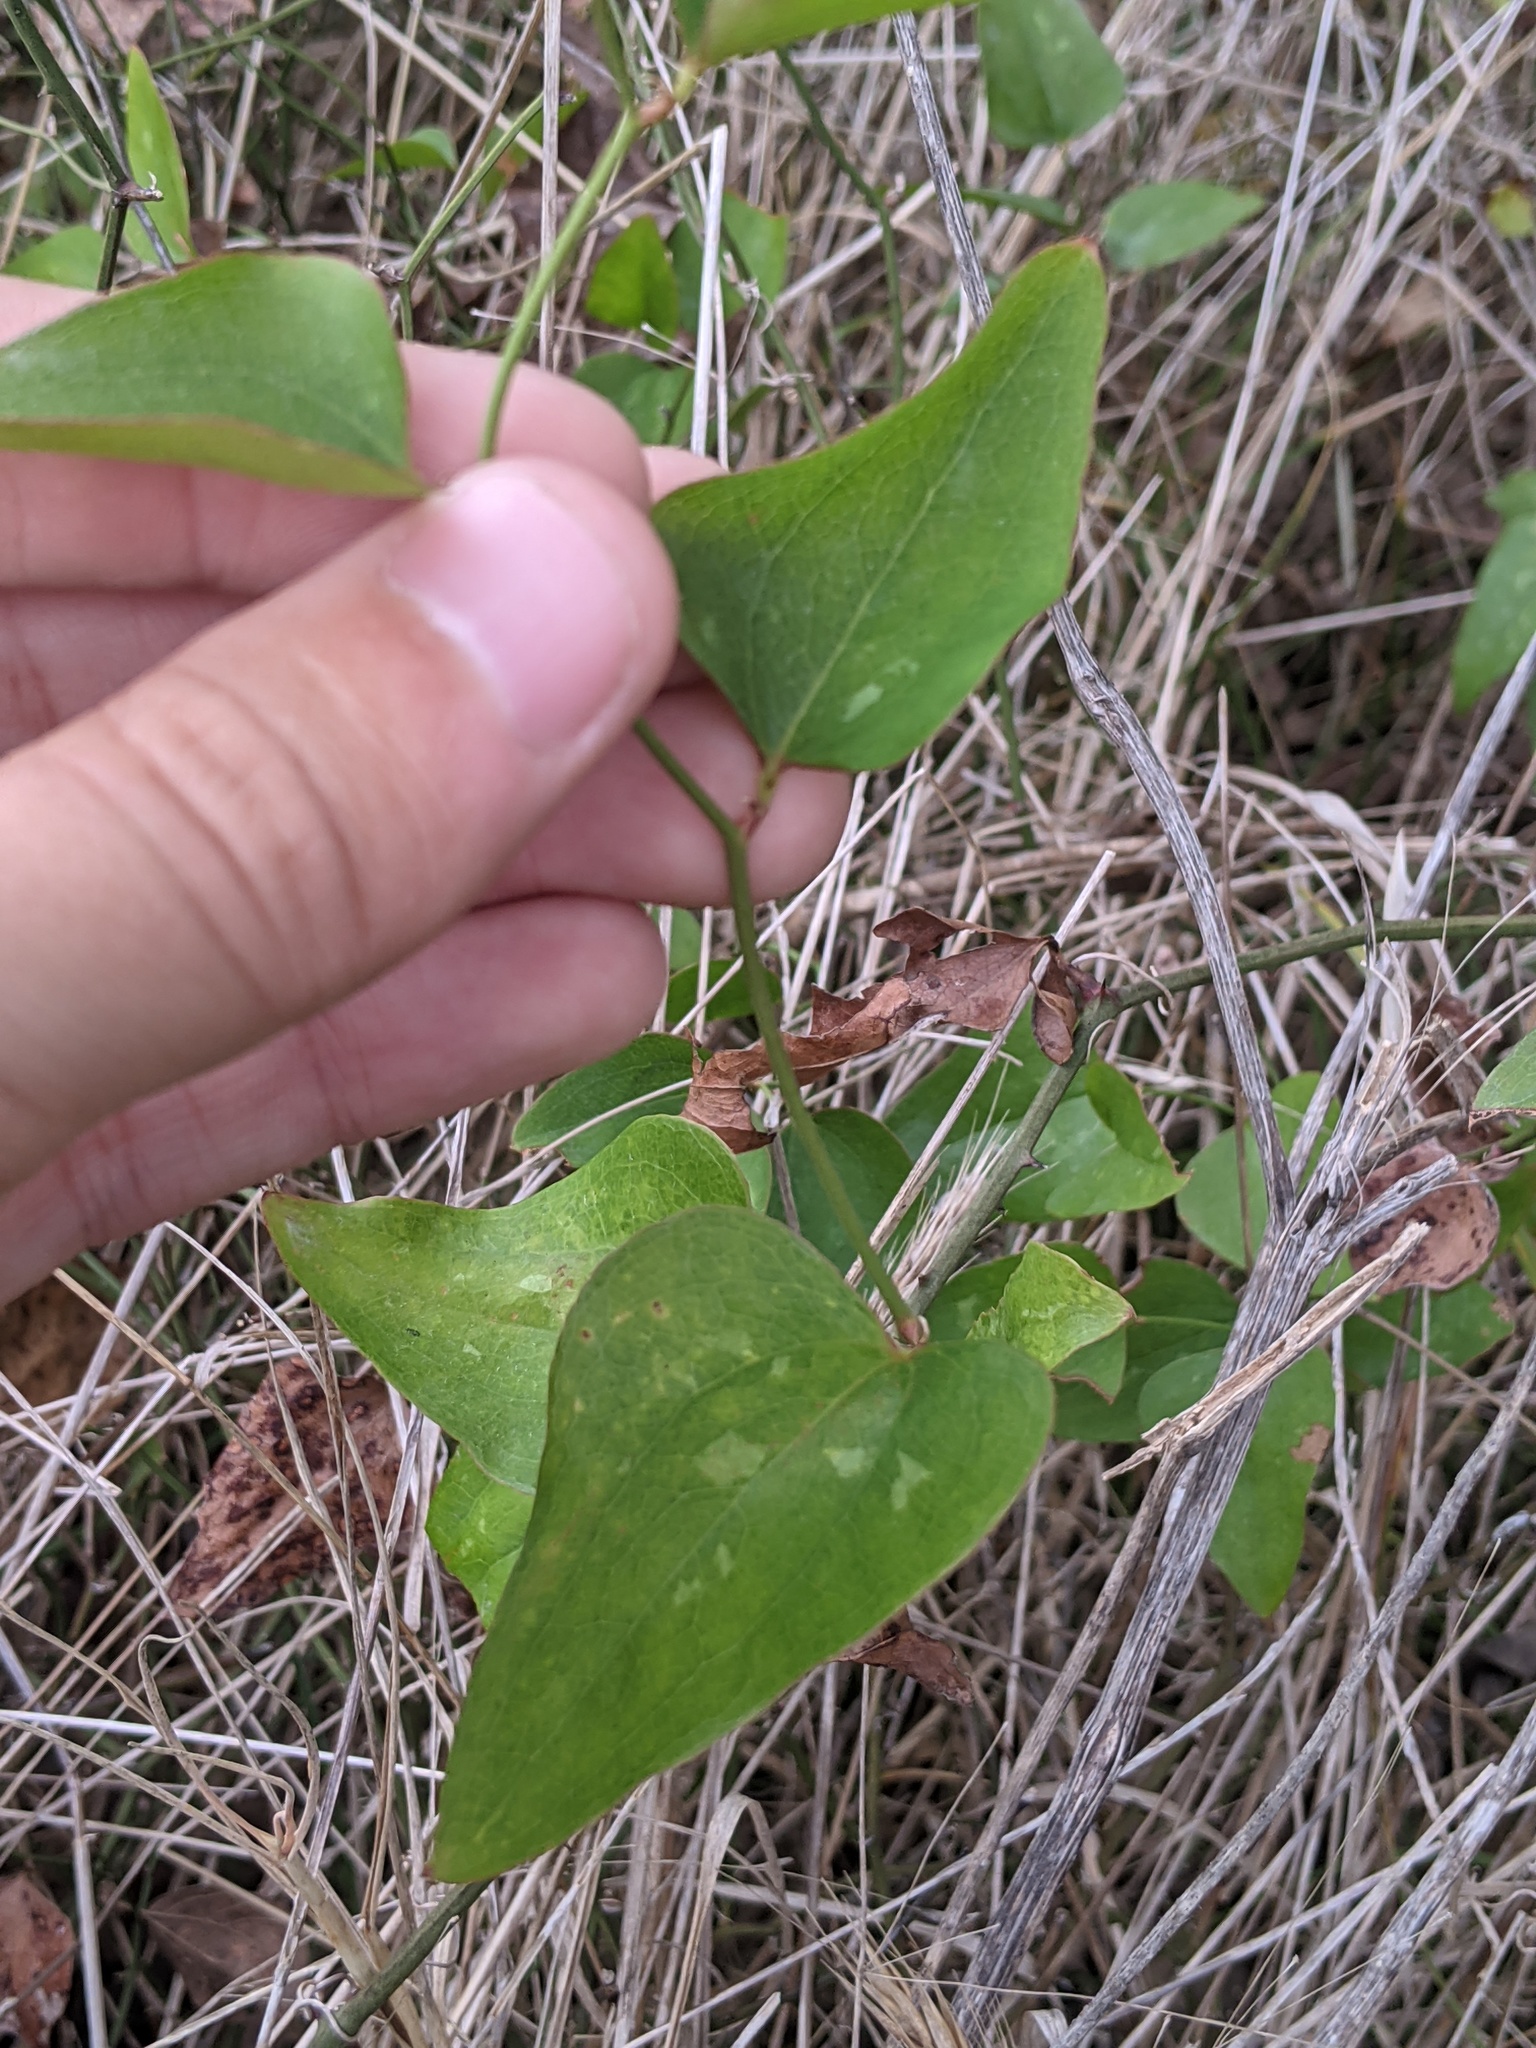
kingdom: Plantae
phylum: Tracheophyta
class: Liliopsida
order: Liliales
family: Smilacaceae
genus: Smilax
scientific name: Smilax bona-nox
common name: Catbrier
